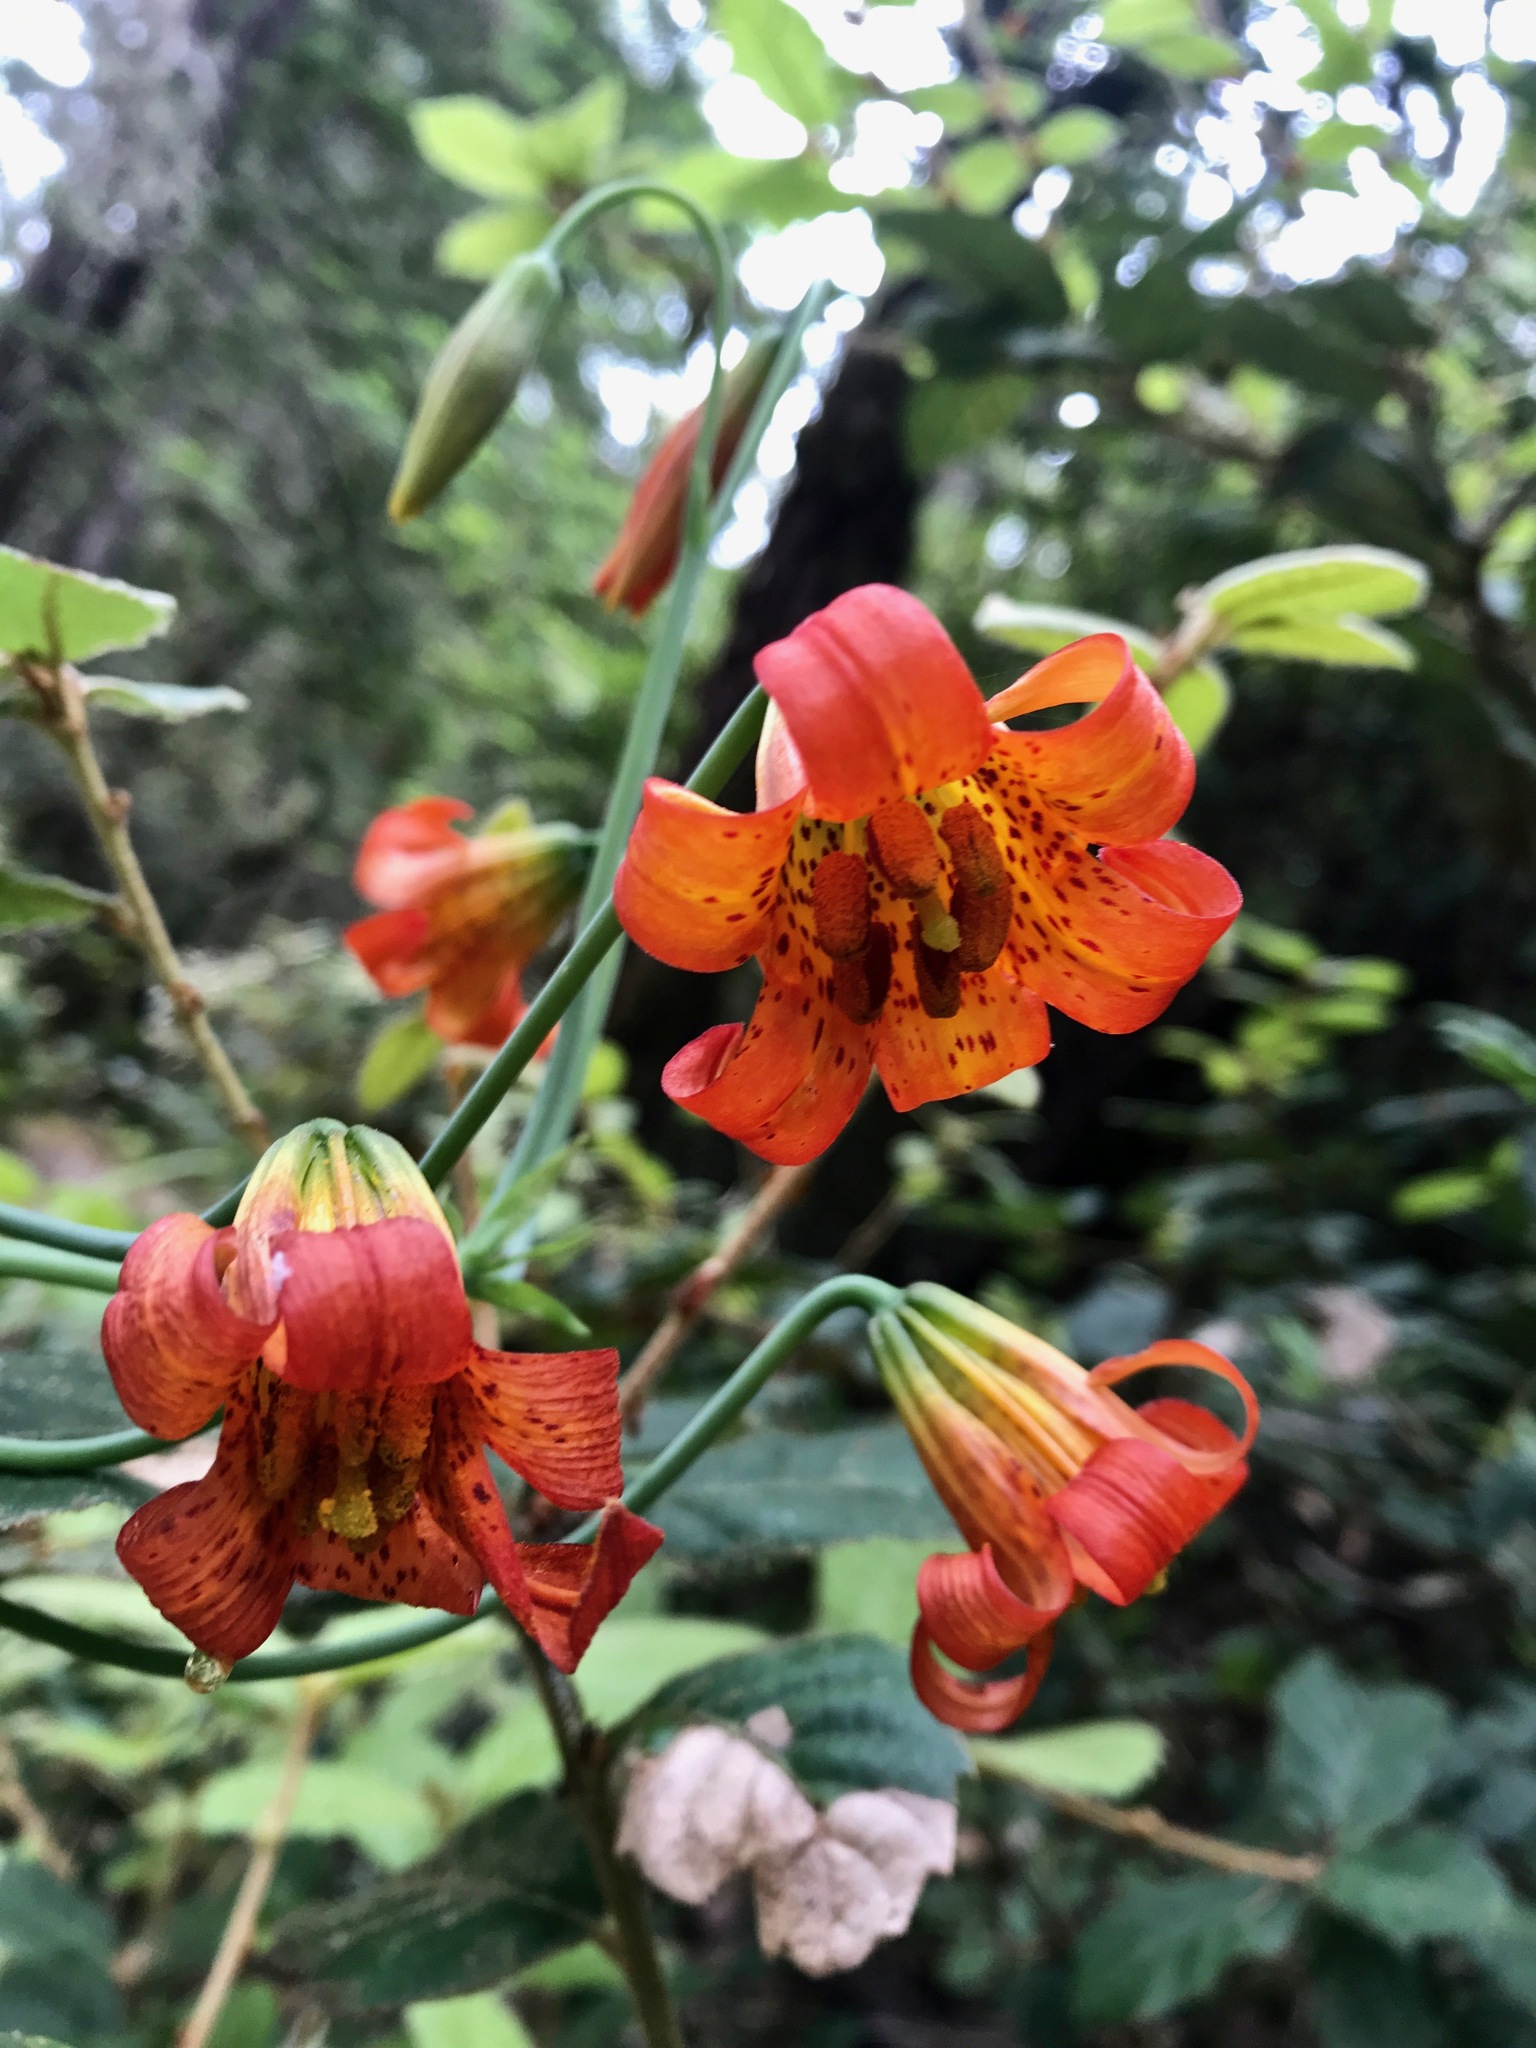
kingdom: Plantae
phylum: Tracheophyta
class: Liliopsida
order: Liliales
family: Liliaceae
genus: Lilium
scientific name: Lilium maritimum
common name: Coastal lily
